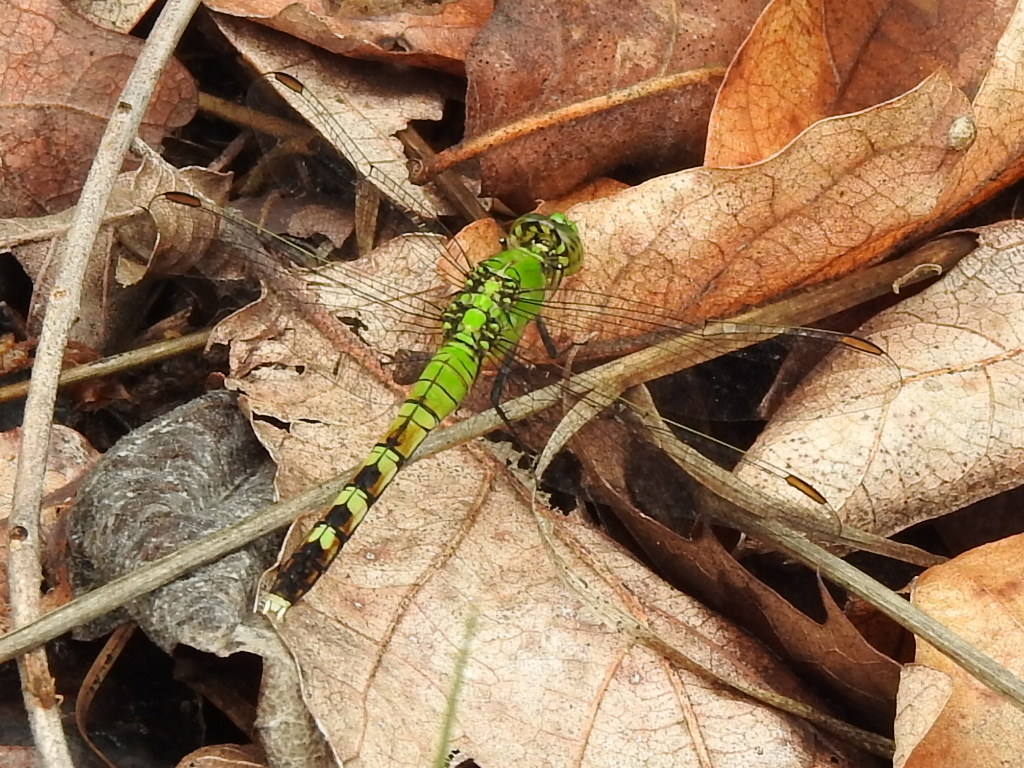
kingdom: Animalia
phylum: Arthropoda
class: Insecta
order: Odonata
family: Libellulidae
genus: Erythemis
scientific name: Erythemis simplicicollis
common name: Eastern pondhawk
